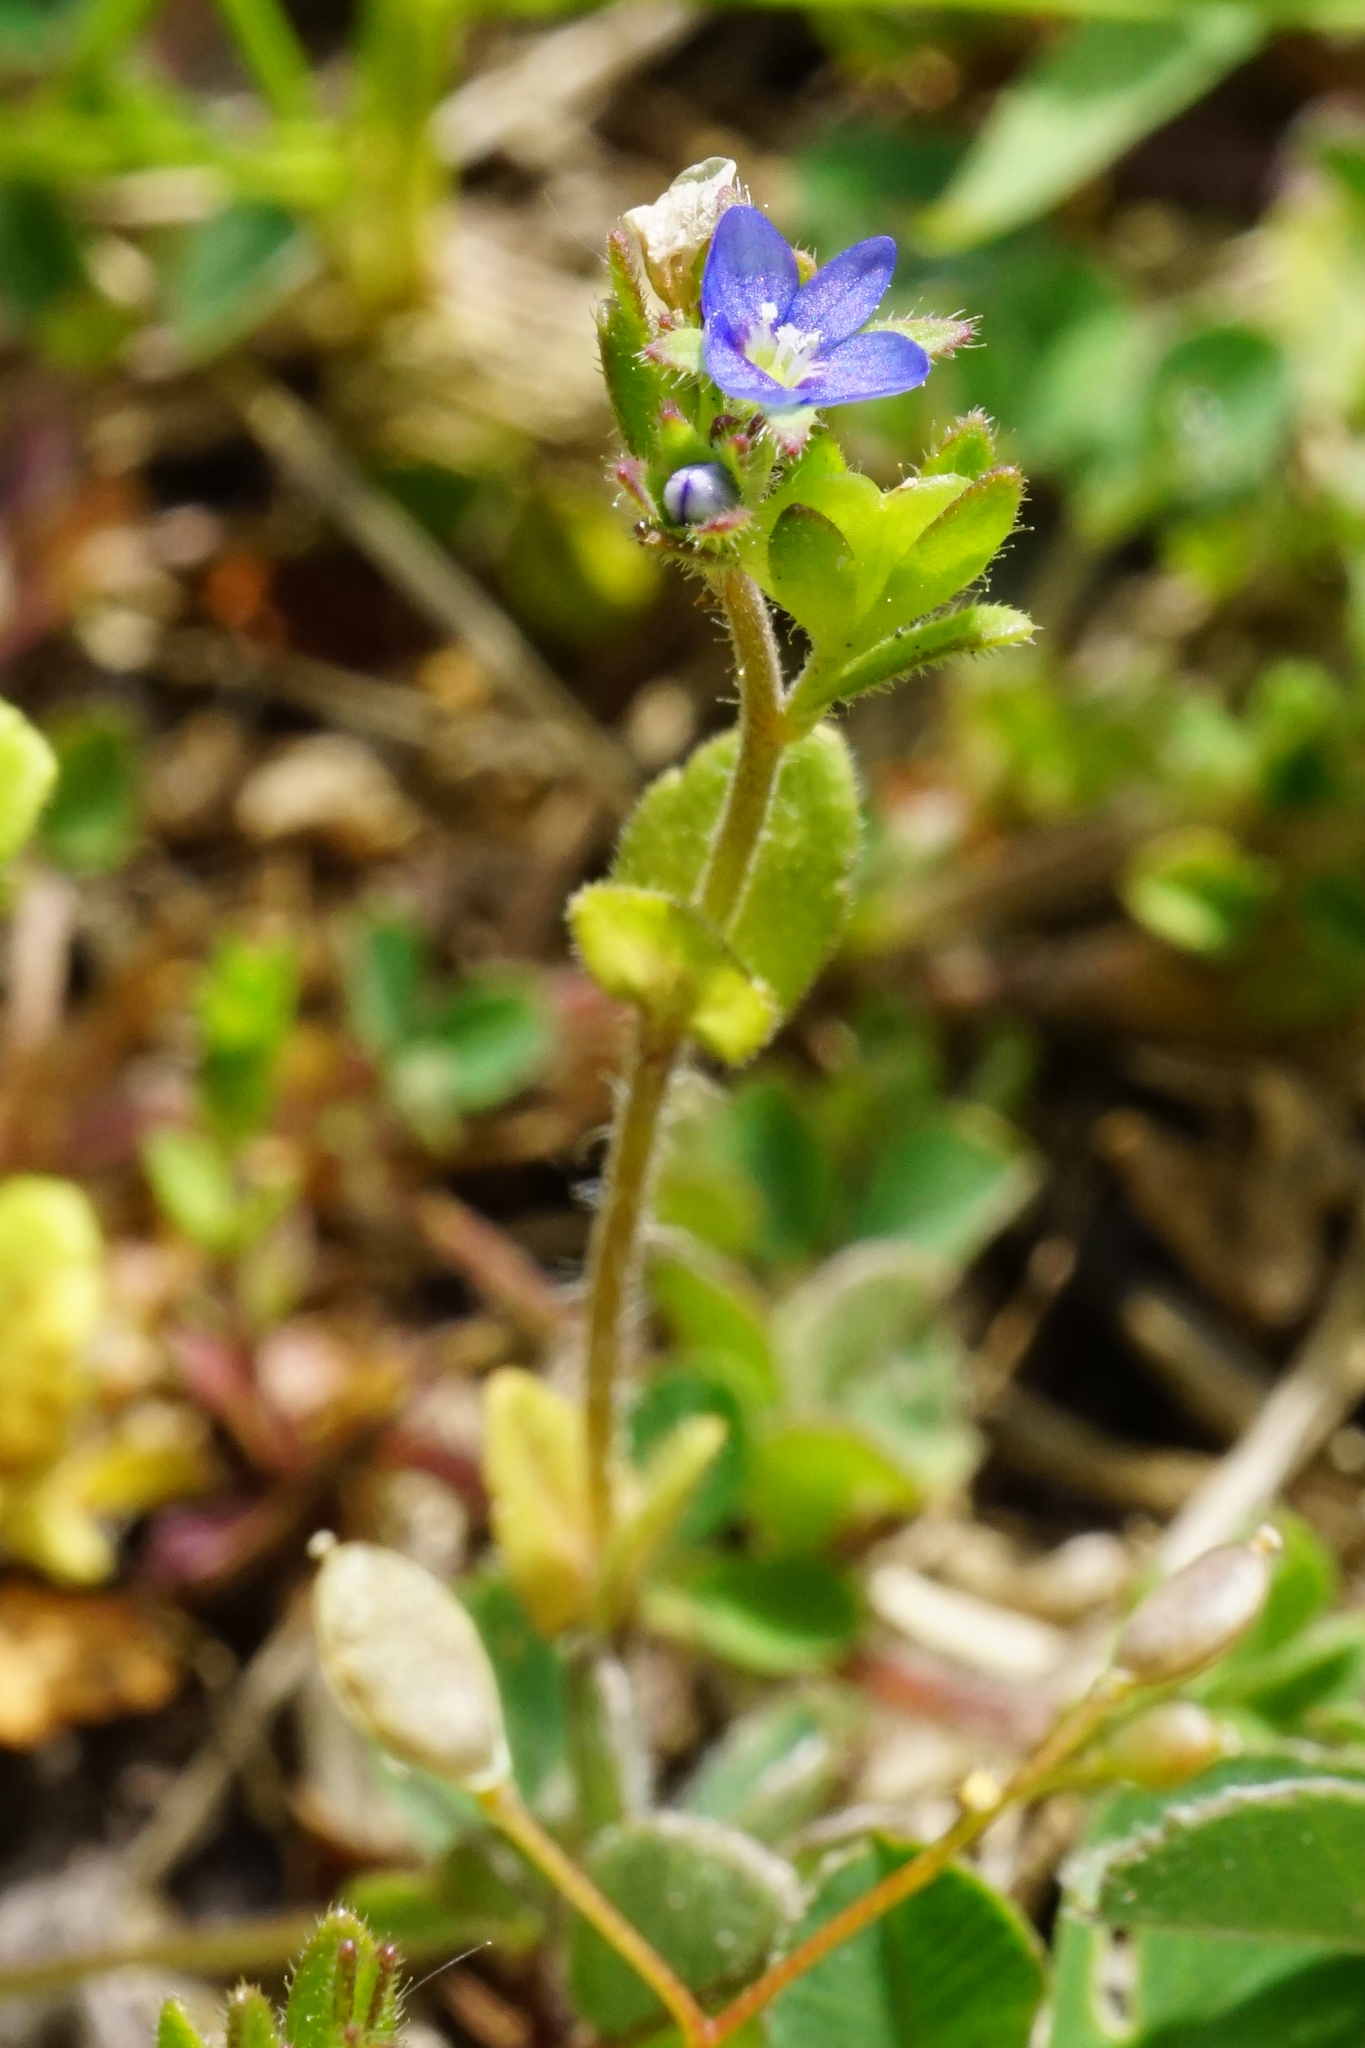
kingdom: Plantae
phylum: Tracheophyta
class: Magnoliopsida
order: Lamiales
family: Plantaginaceae
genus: Veronica
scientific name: Veronica arvensis
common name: Corn speedwell
